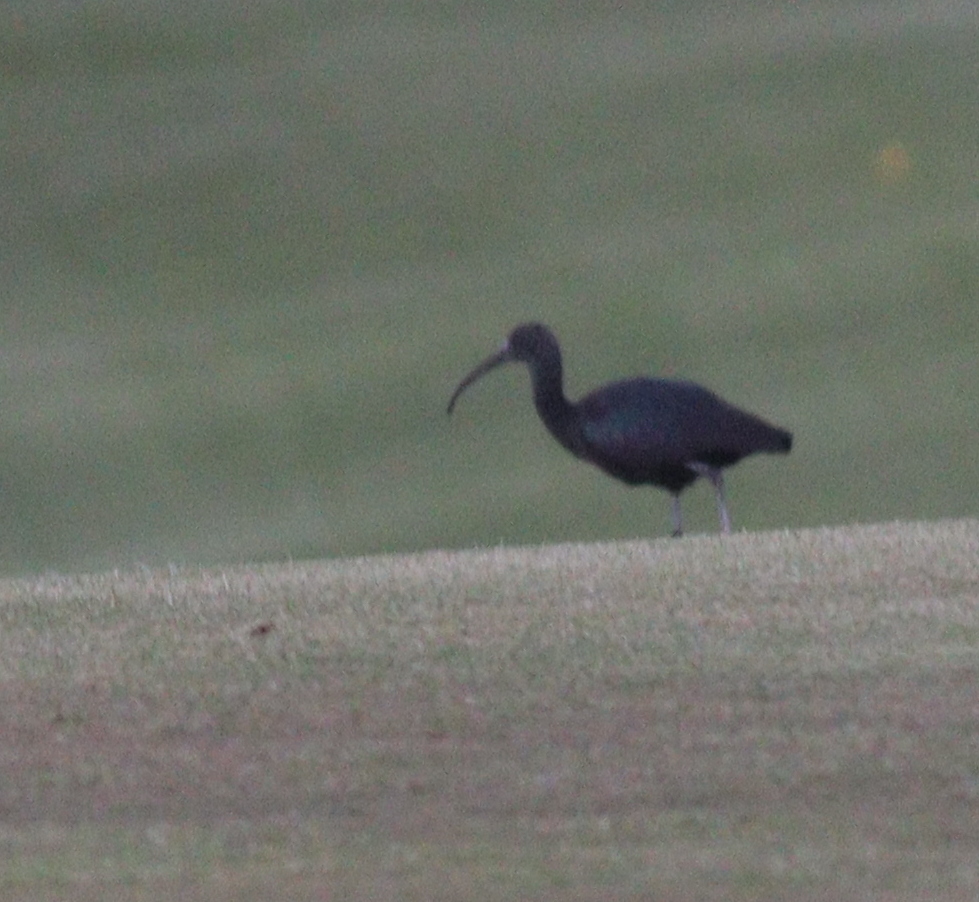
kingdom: Animalia
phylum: Chordata
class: Aves
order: Pelecaniformes
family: Threskiornithidae
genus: Plegadis
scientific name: Plegadis falcinellus
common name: Glossy ibis
